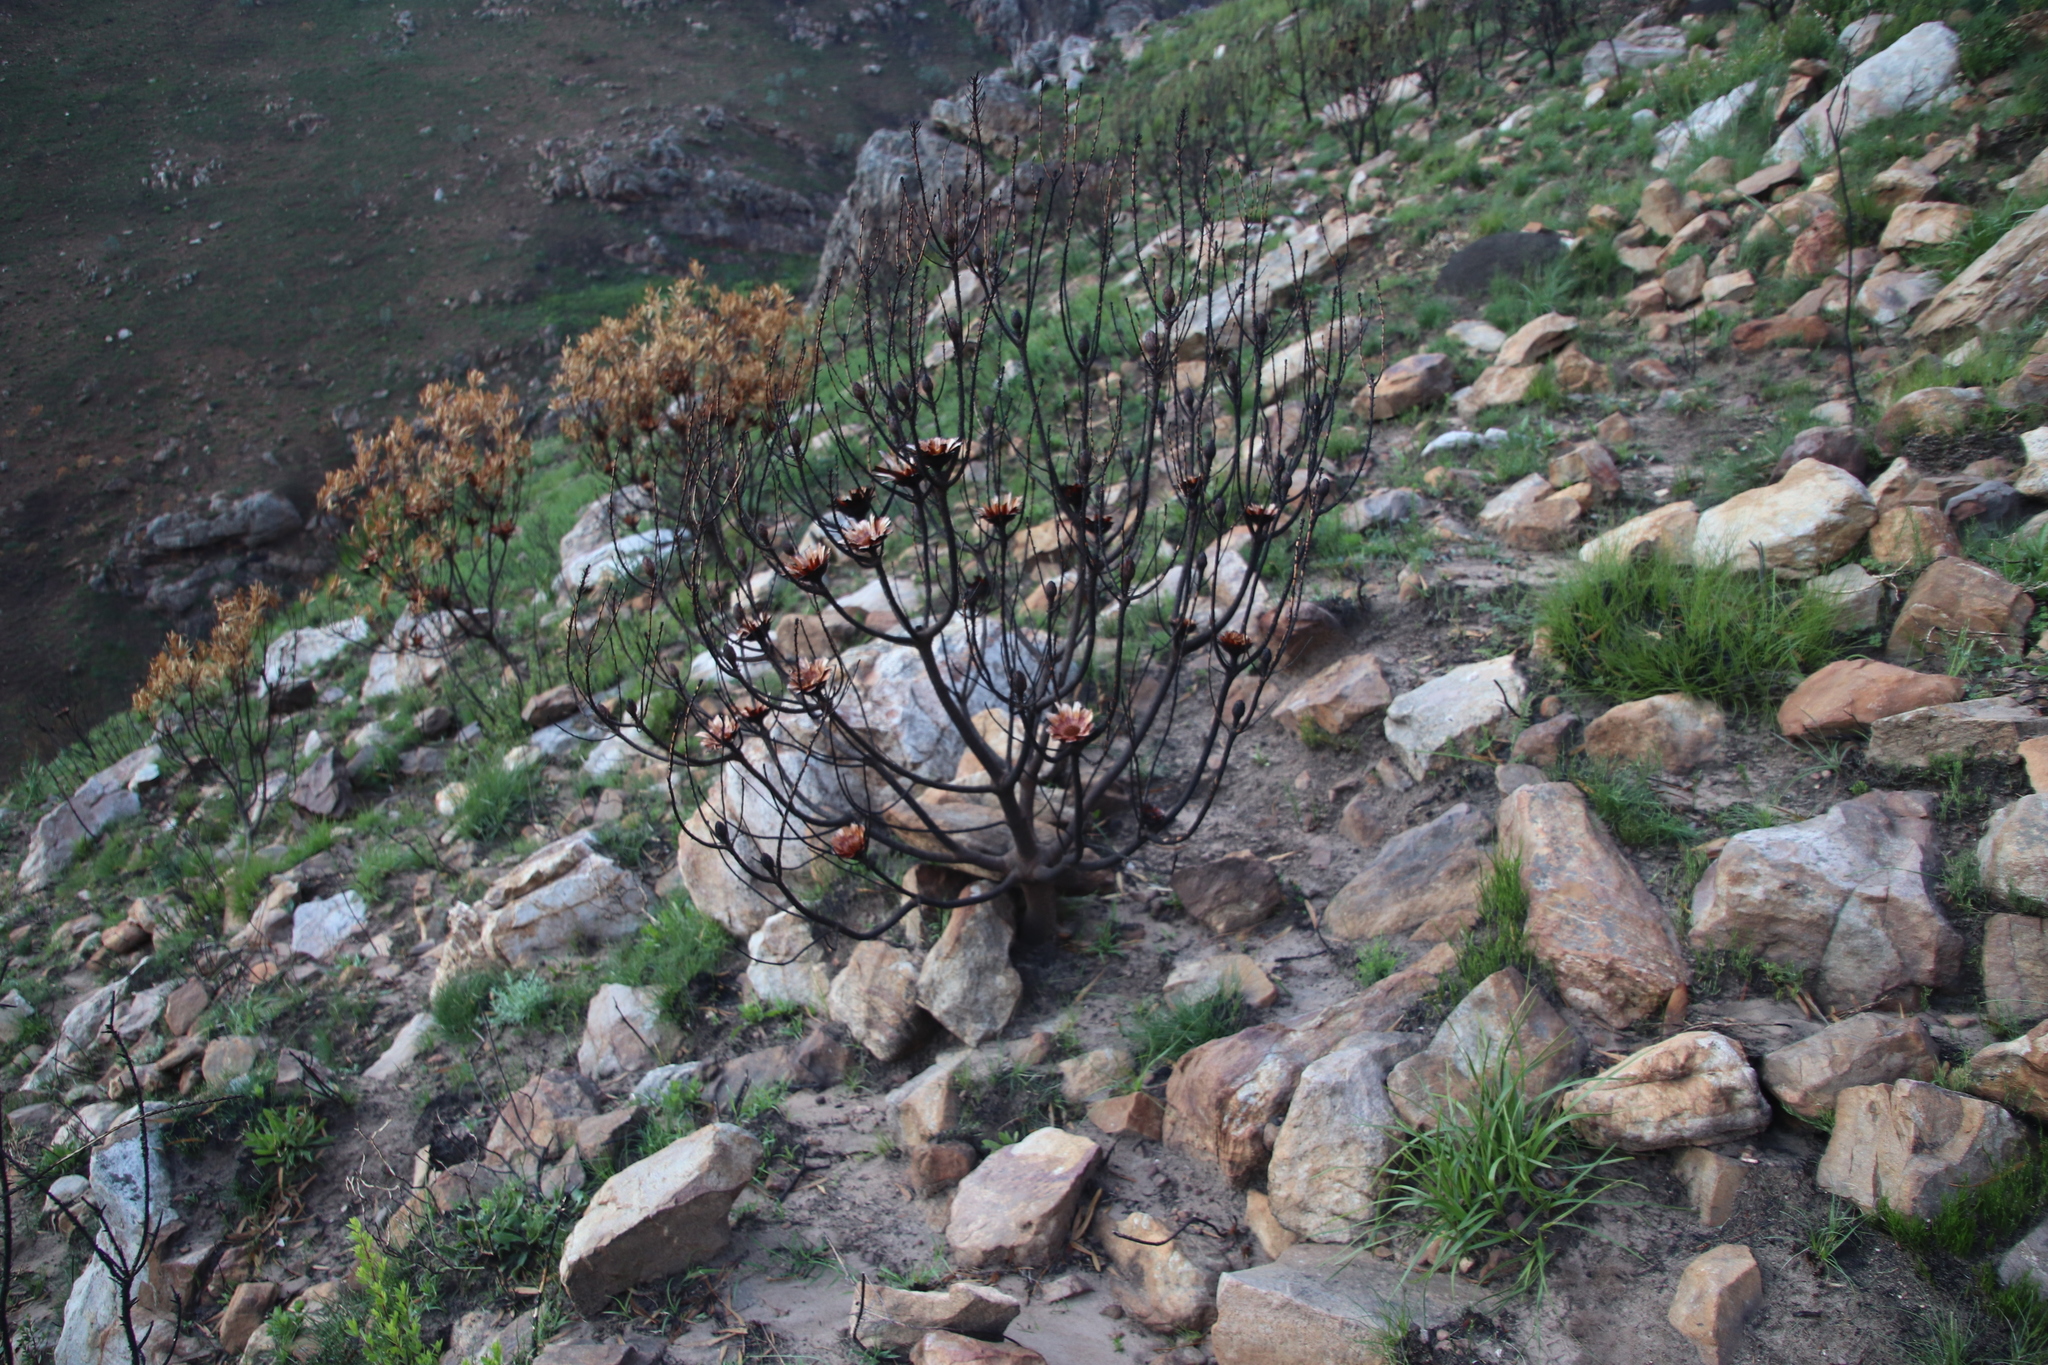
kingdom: Plantae
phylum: Tracheophyta
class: Magnoliopsida
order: Proteales
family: Proteaceae
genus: Protea
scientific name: Protea repens
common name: Sugarbush
